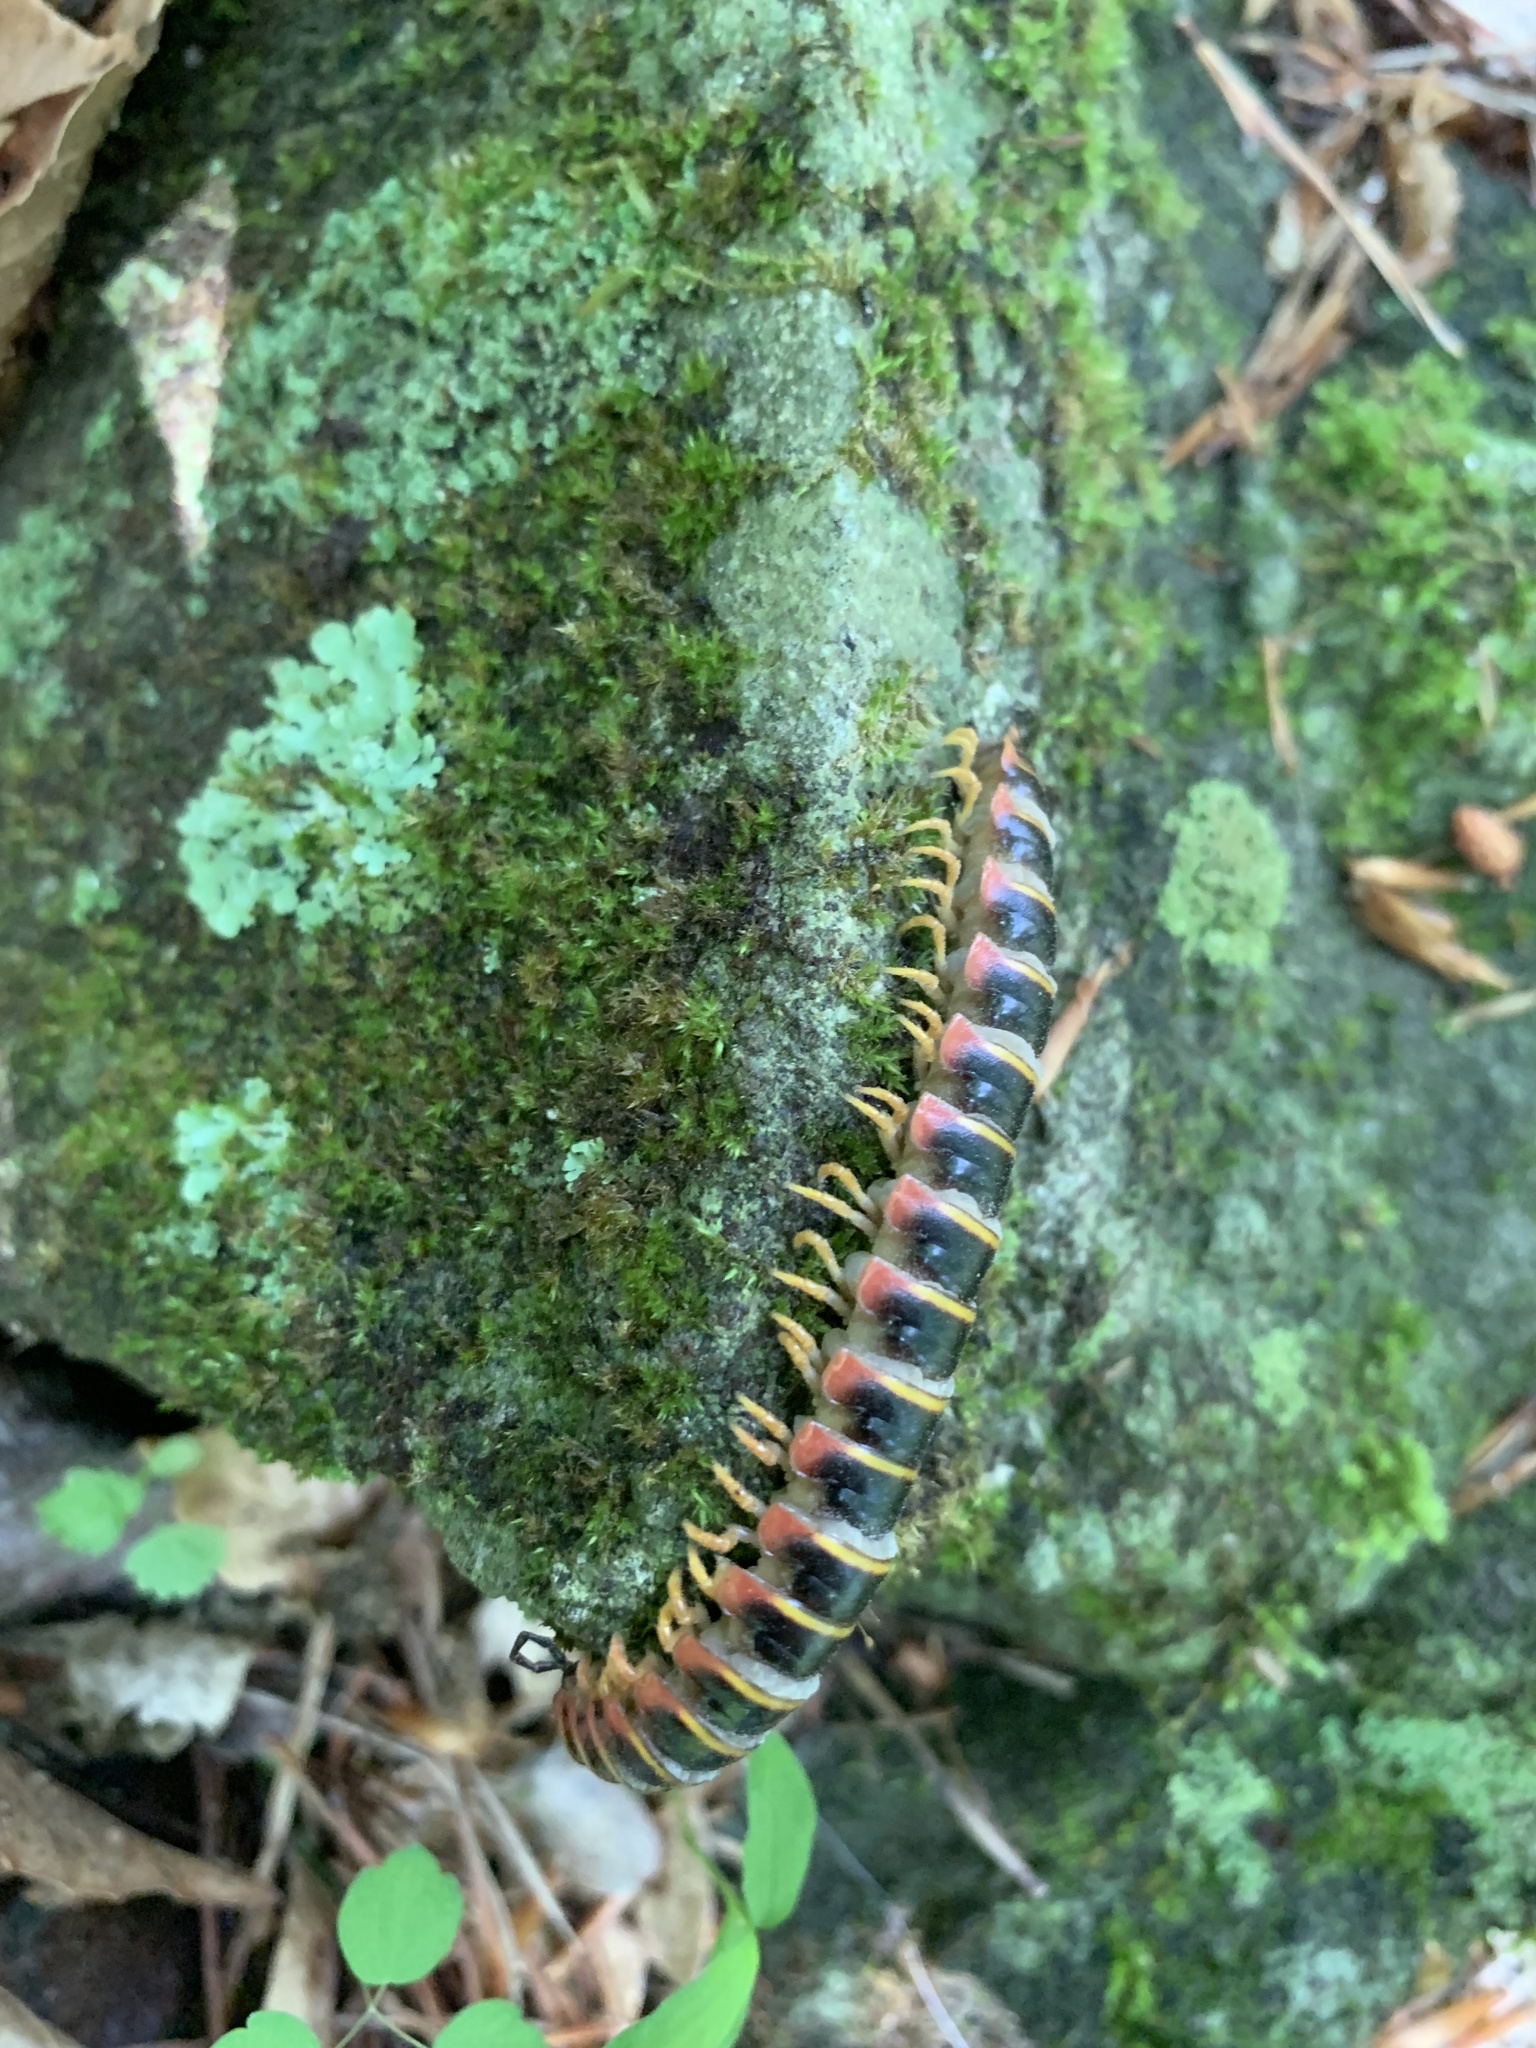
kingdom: Animalia
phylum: Arthropoda
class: Diplopoda
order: Polydesmida
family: Xystodesmidae
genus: Apheloria
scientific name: Apheloria virginiensis
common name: Black-and-gold flat millipede
